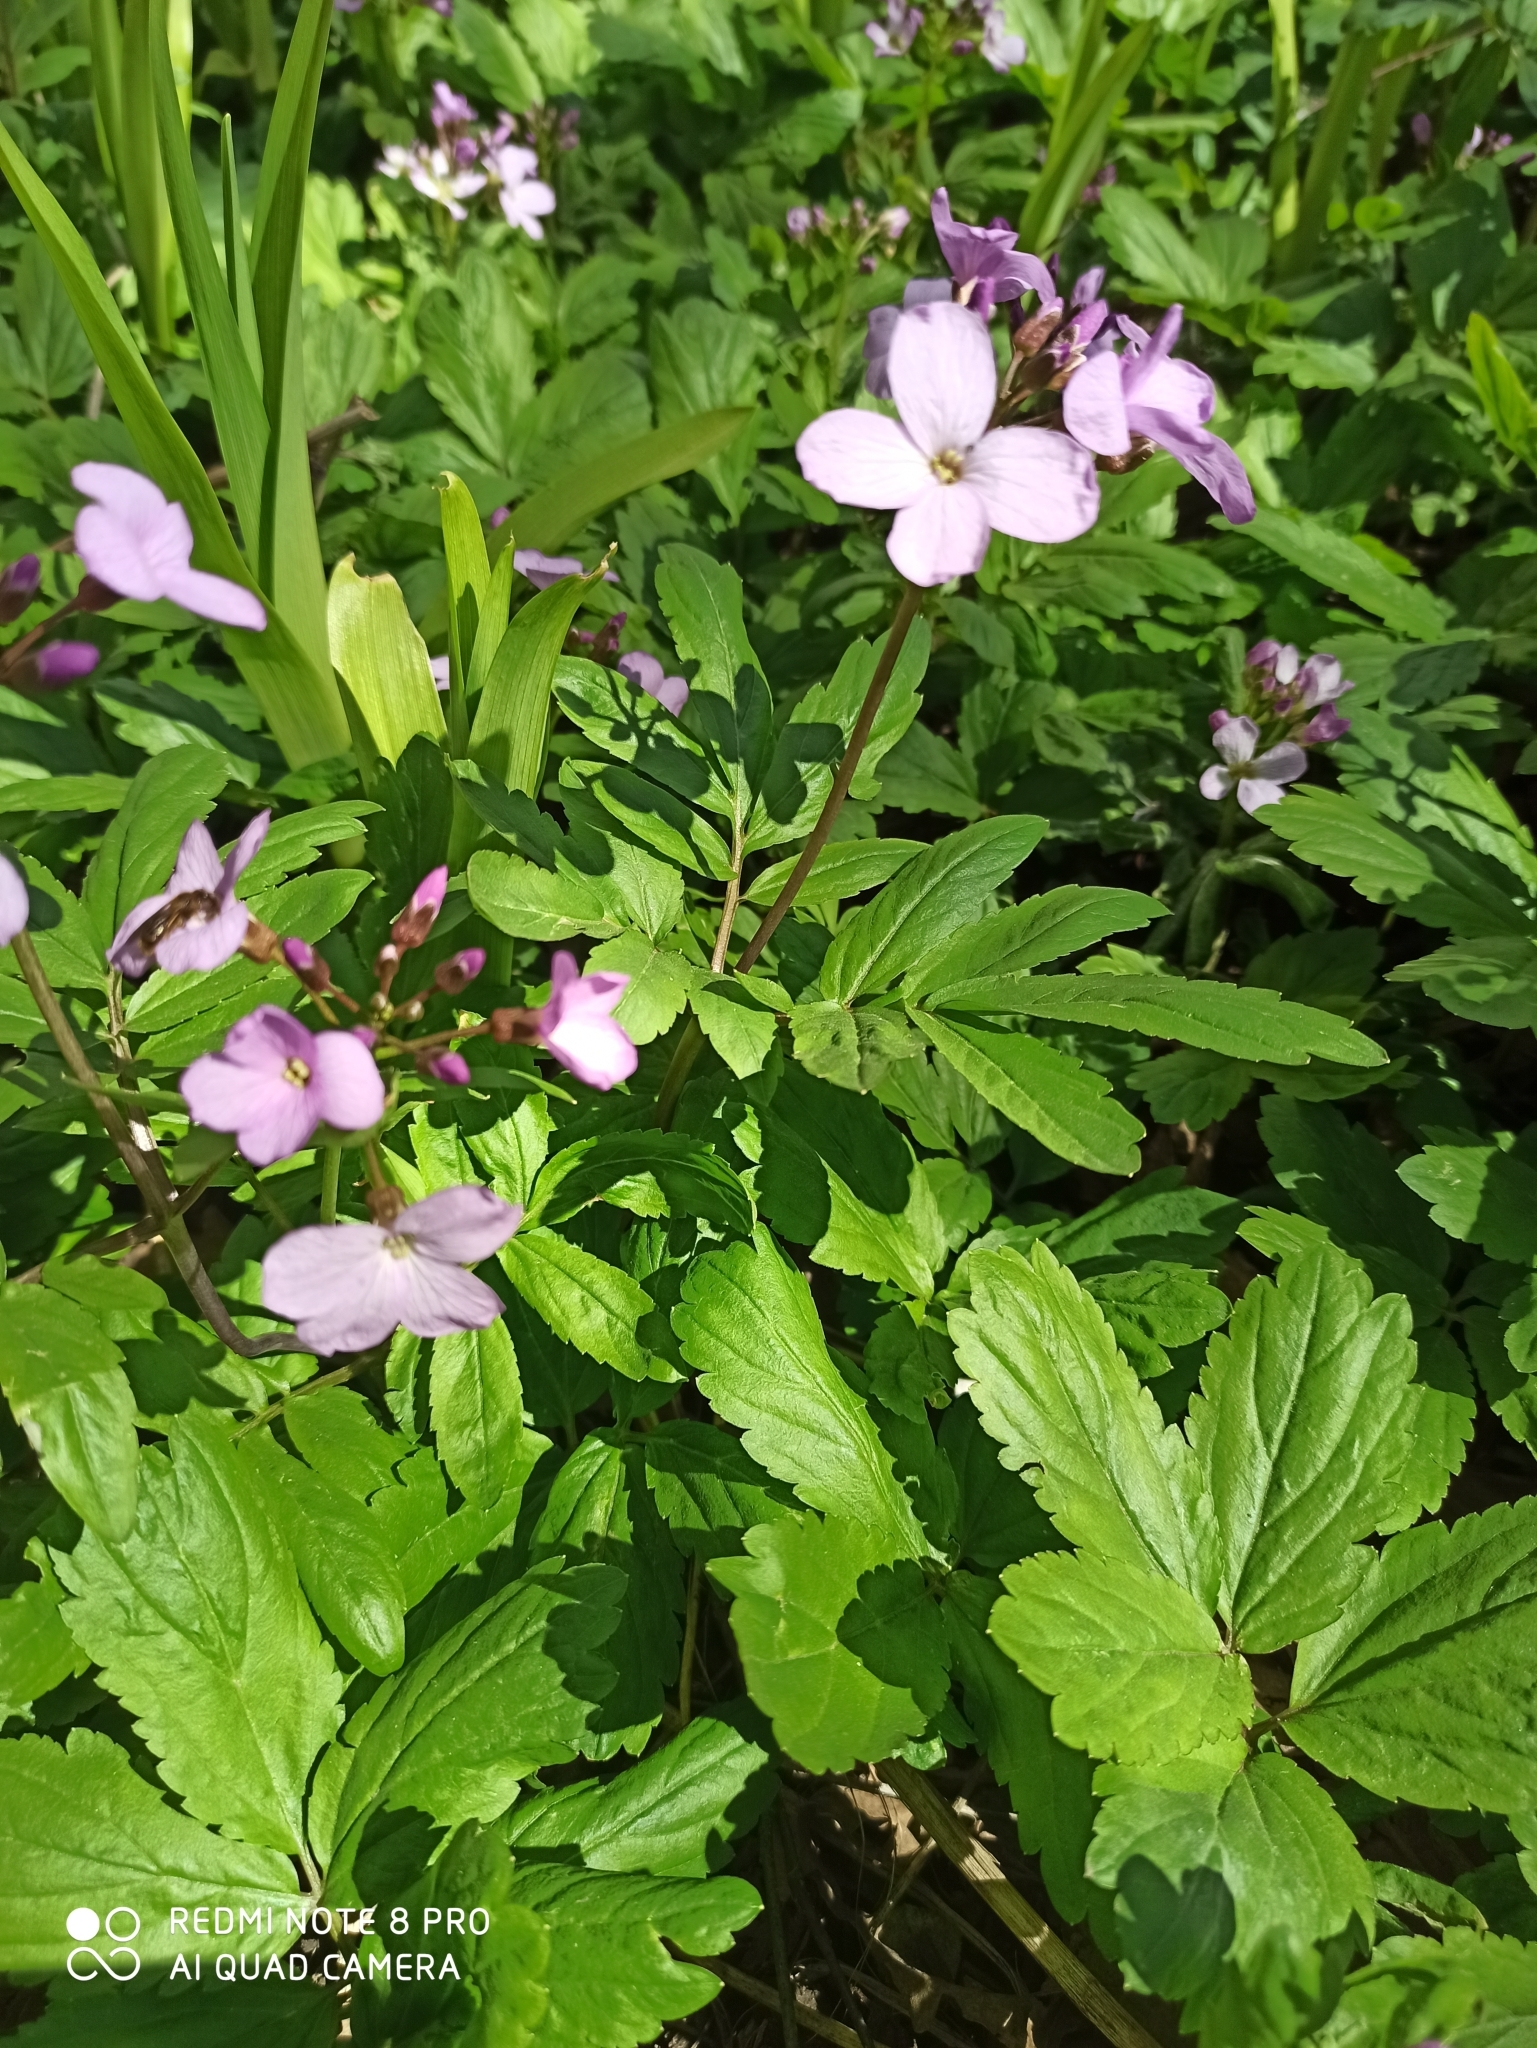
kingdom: Plantae
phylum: Tracheophyta
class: Magnoliopsida
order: Brassicales
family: Brassicaceae
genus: Cardamine
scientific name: Cardamine quinquefolia
